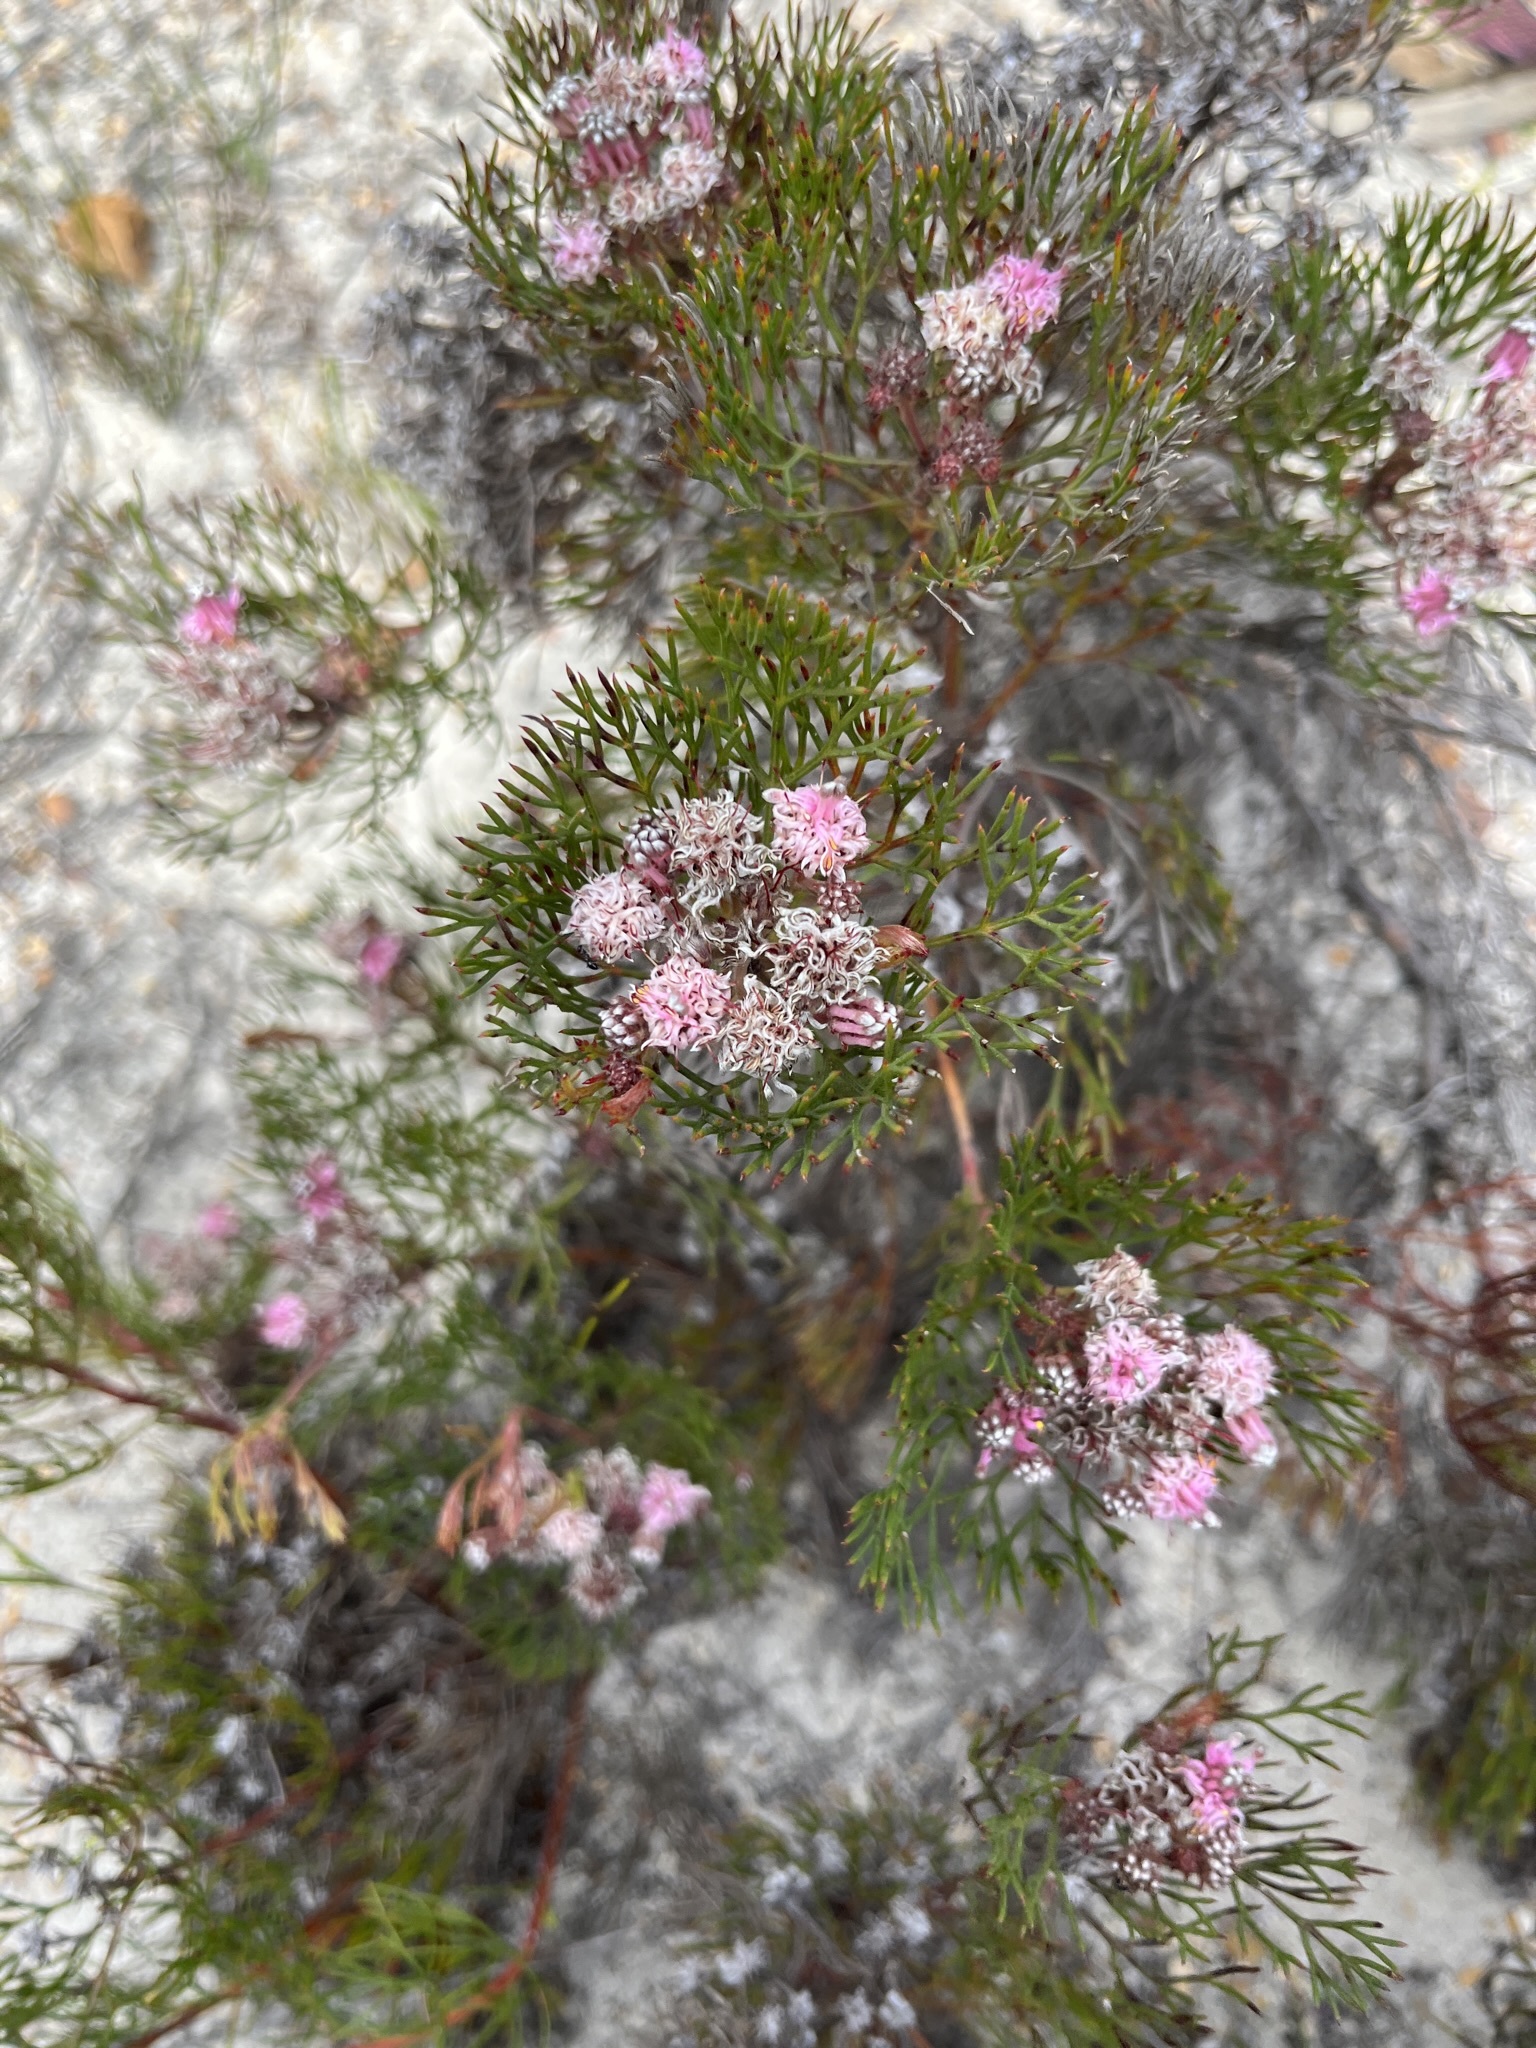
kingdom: Plantae
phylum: Tracheophyta
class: Magnoliopsida
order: Proteales
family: Proteaceae
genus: Serruria
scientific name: Serruria fasciflora
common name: Common pin spiderhead
